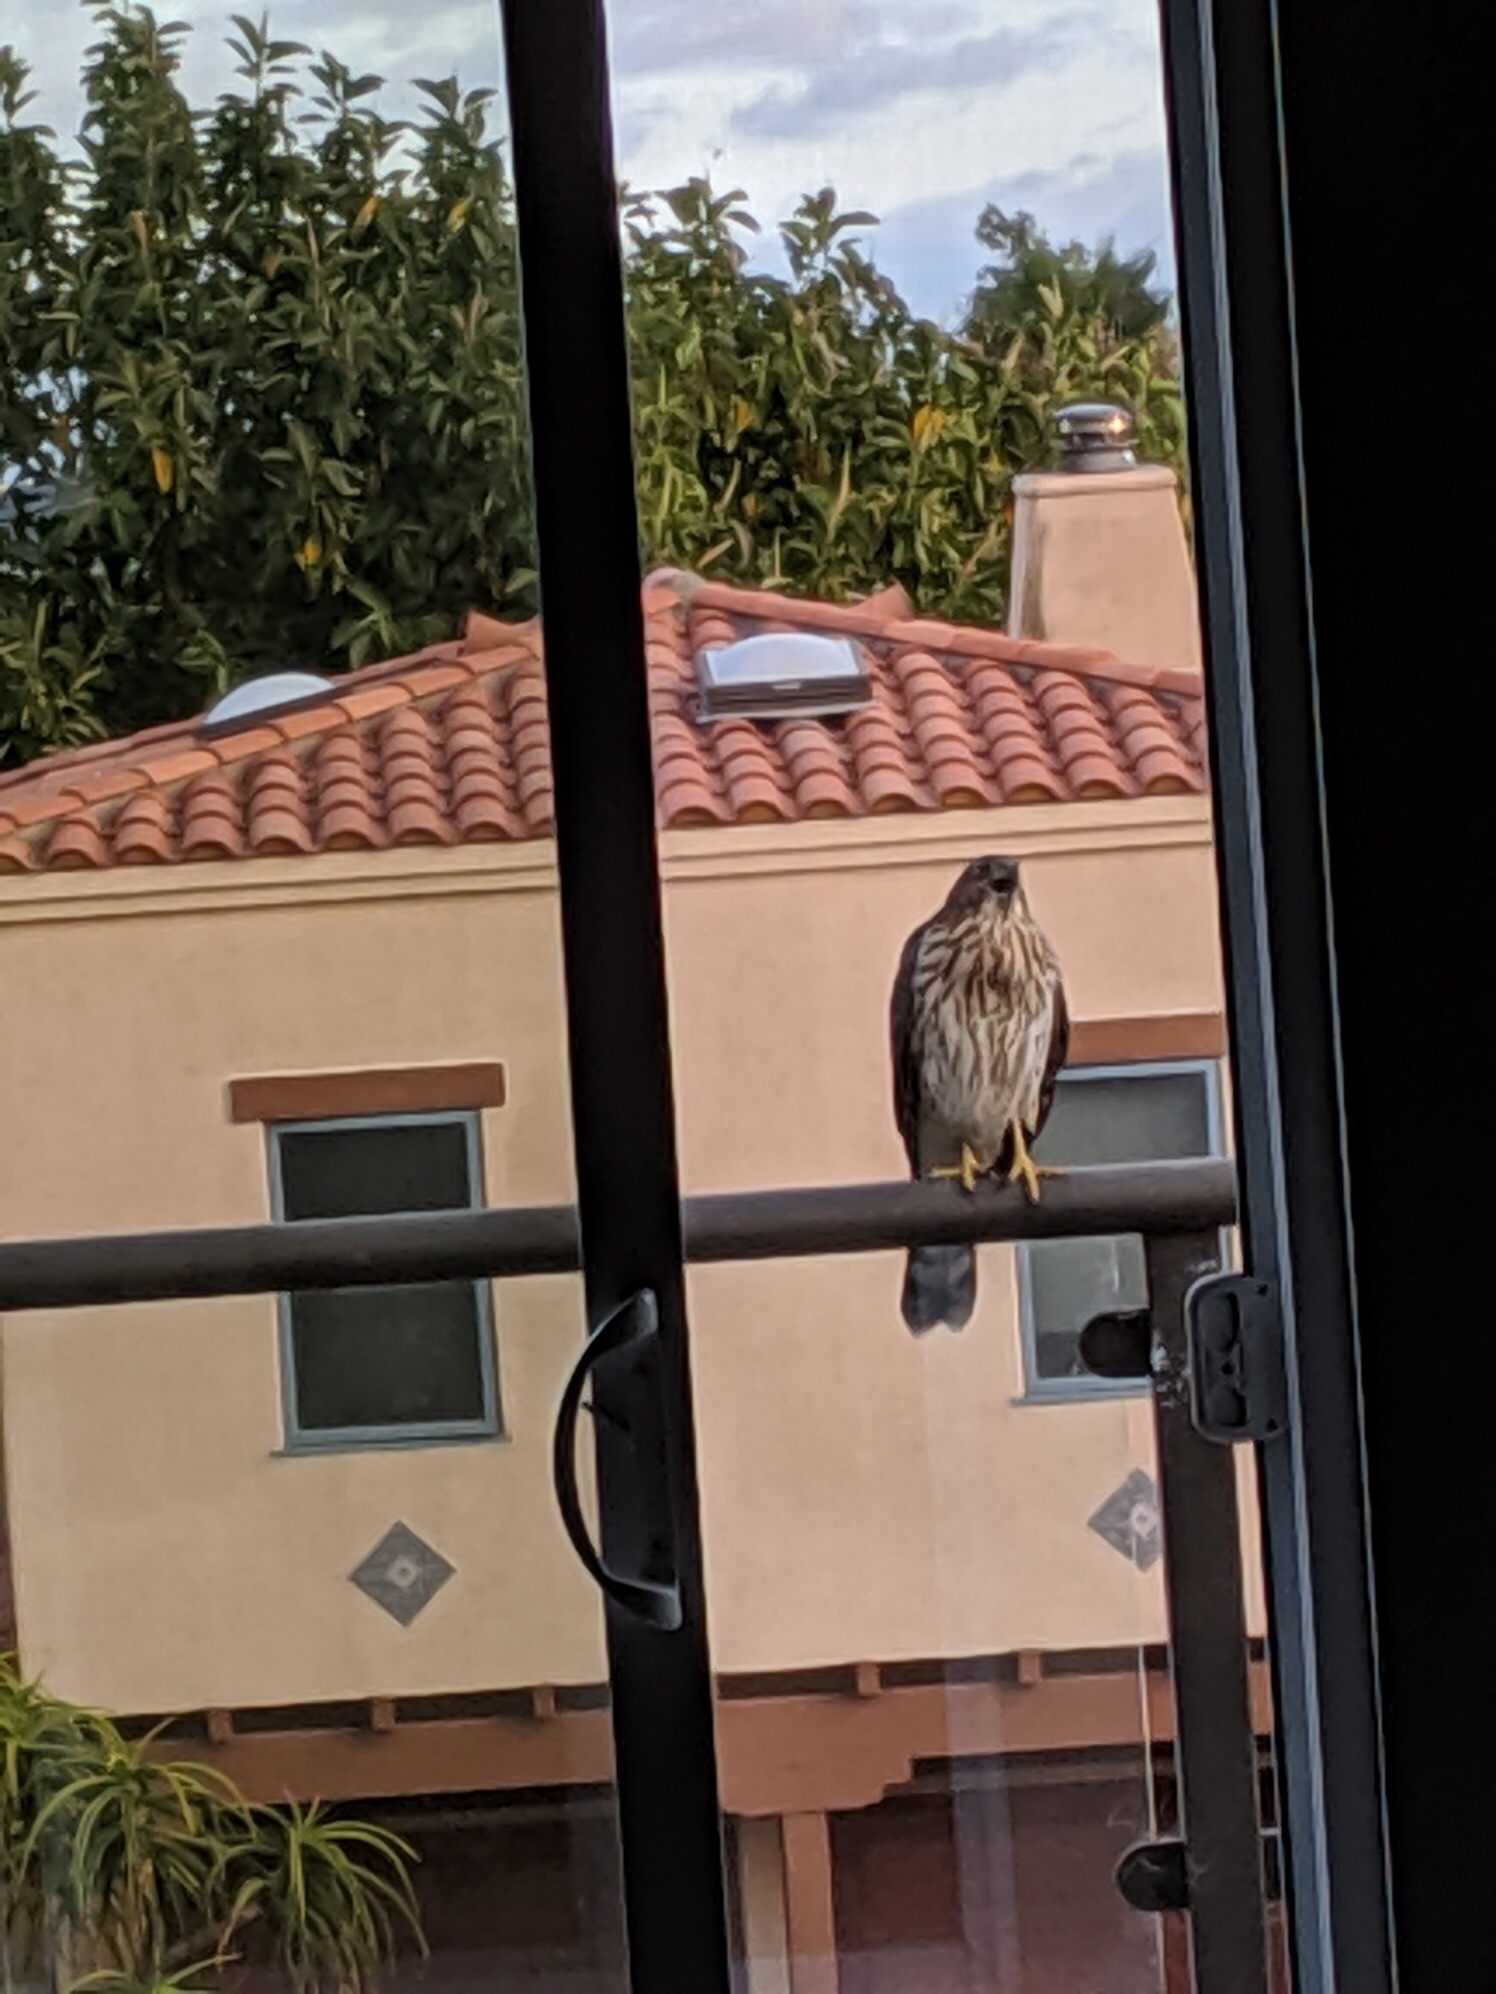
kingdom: Animalia
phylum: Chordata
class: Aves
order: Accipitriformes
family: Accipitridae
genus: Accipiter
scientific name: Accipiter cooperii
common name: Cooper's hawk
